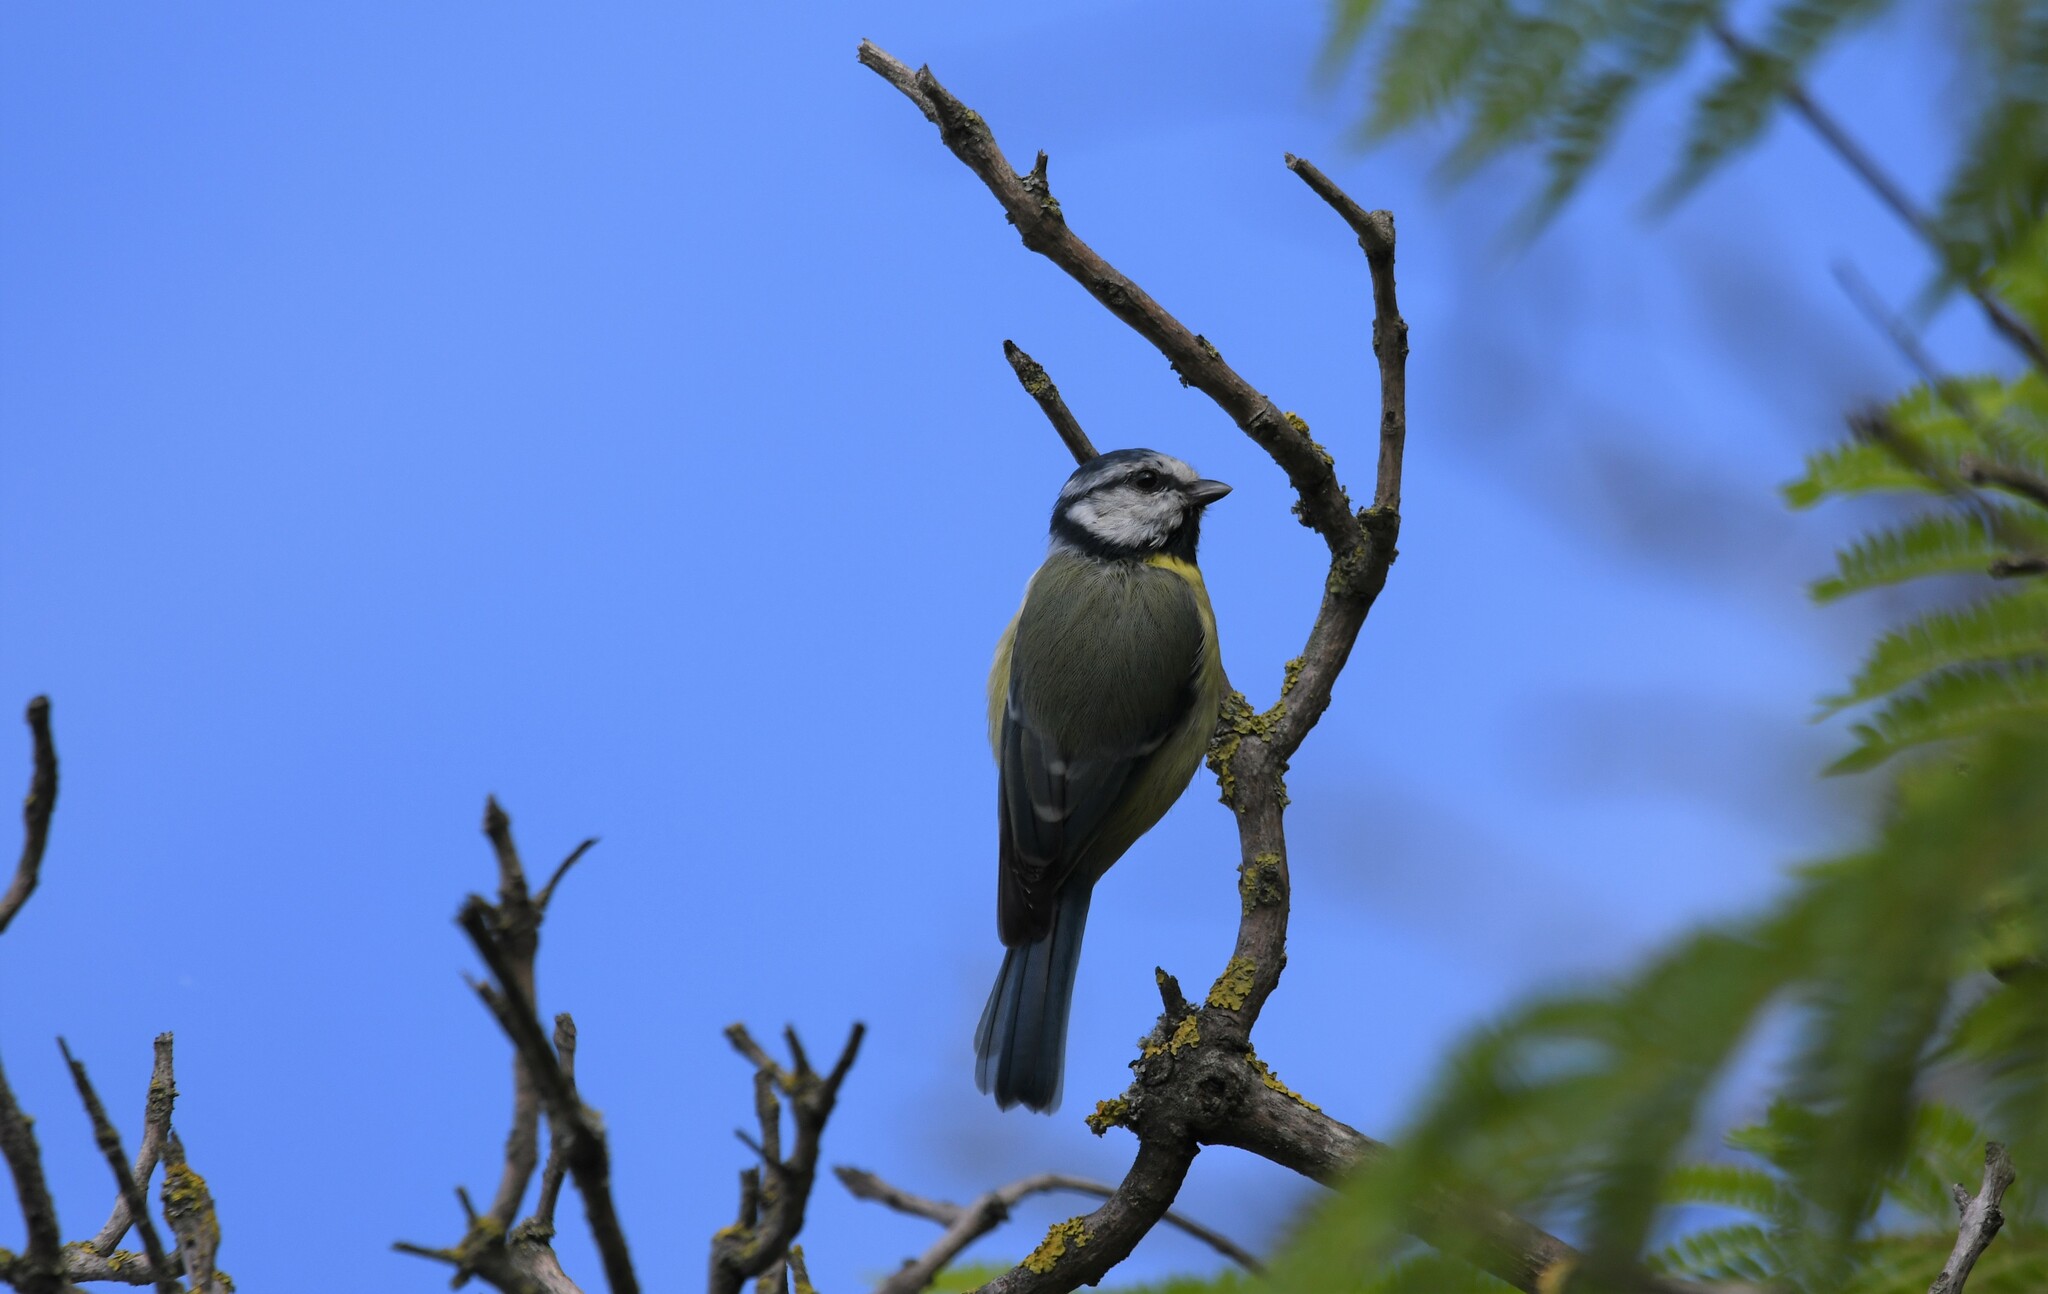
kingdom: Animalia
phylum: Chordata
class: Aves
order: Passeriformes
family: Paridae
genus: Cyanistes
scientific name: Cyanistes caeruleus
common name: Eurasian blue tit
